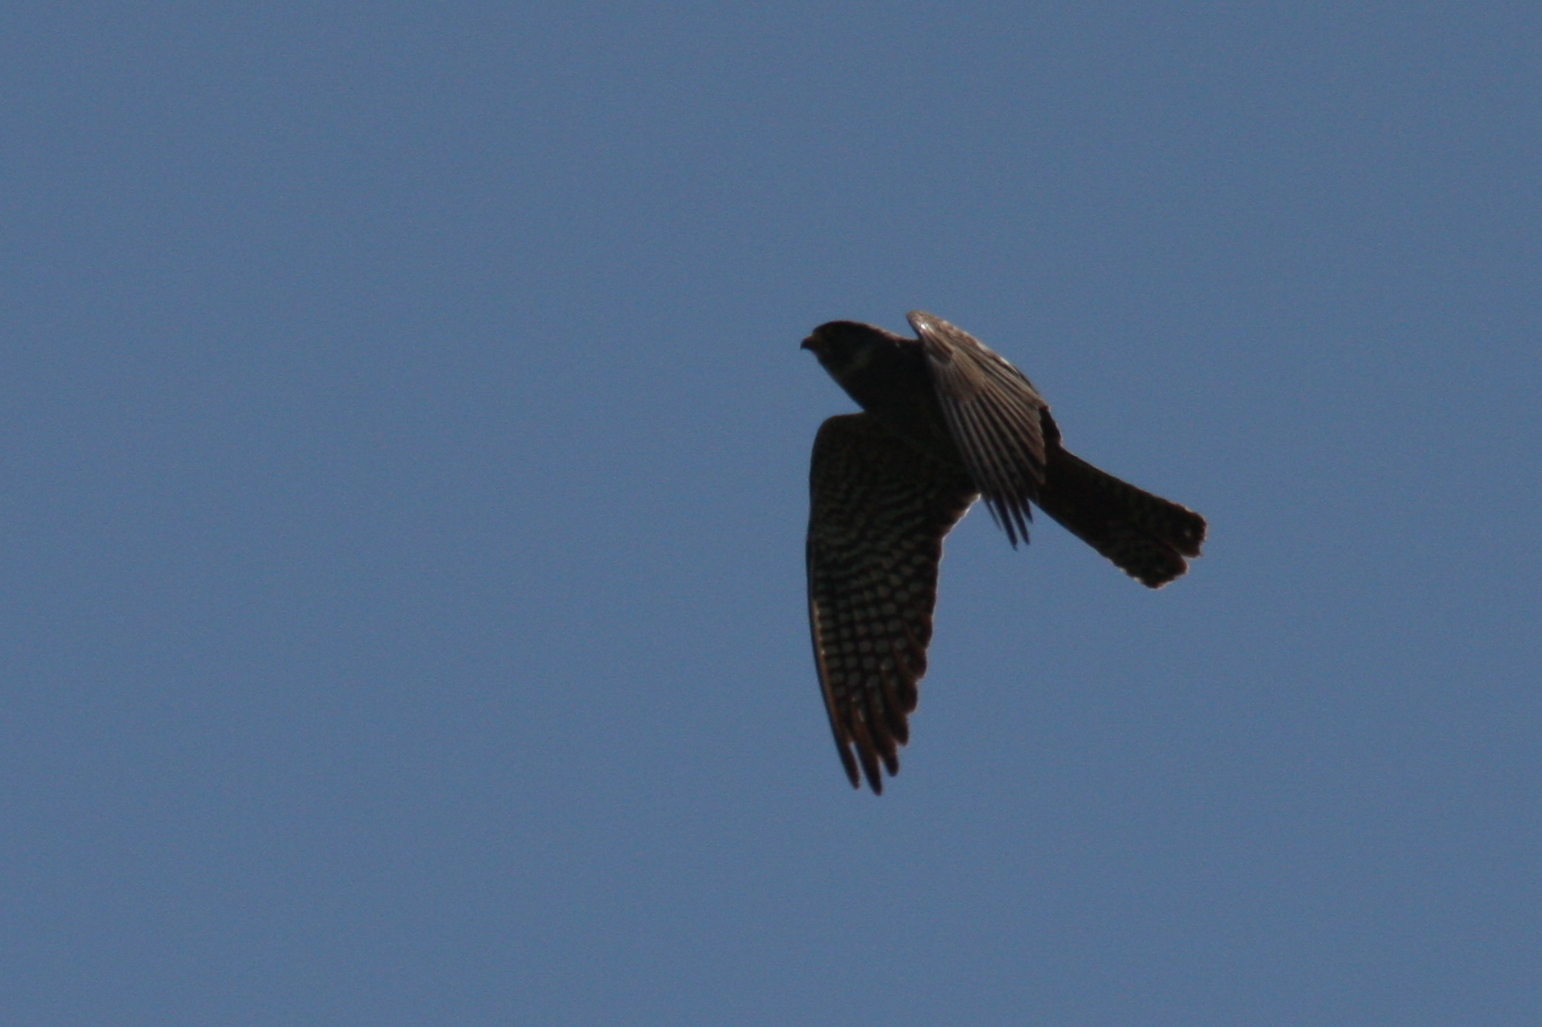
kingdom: Animalia
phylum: Chordata
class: Aves
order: Falconiformes
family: Falconidae
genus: Falco
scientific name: Falco vespertinus
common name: Red-footed falcon
